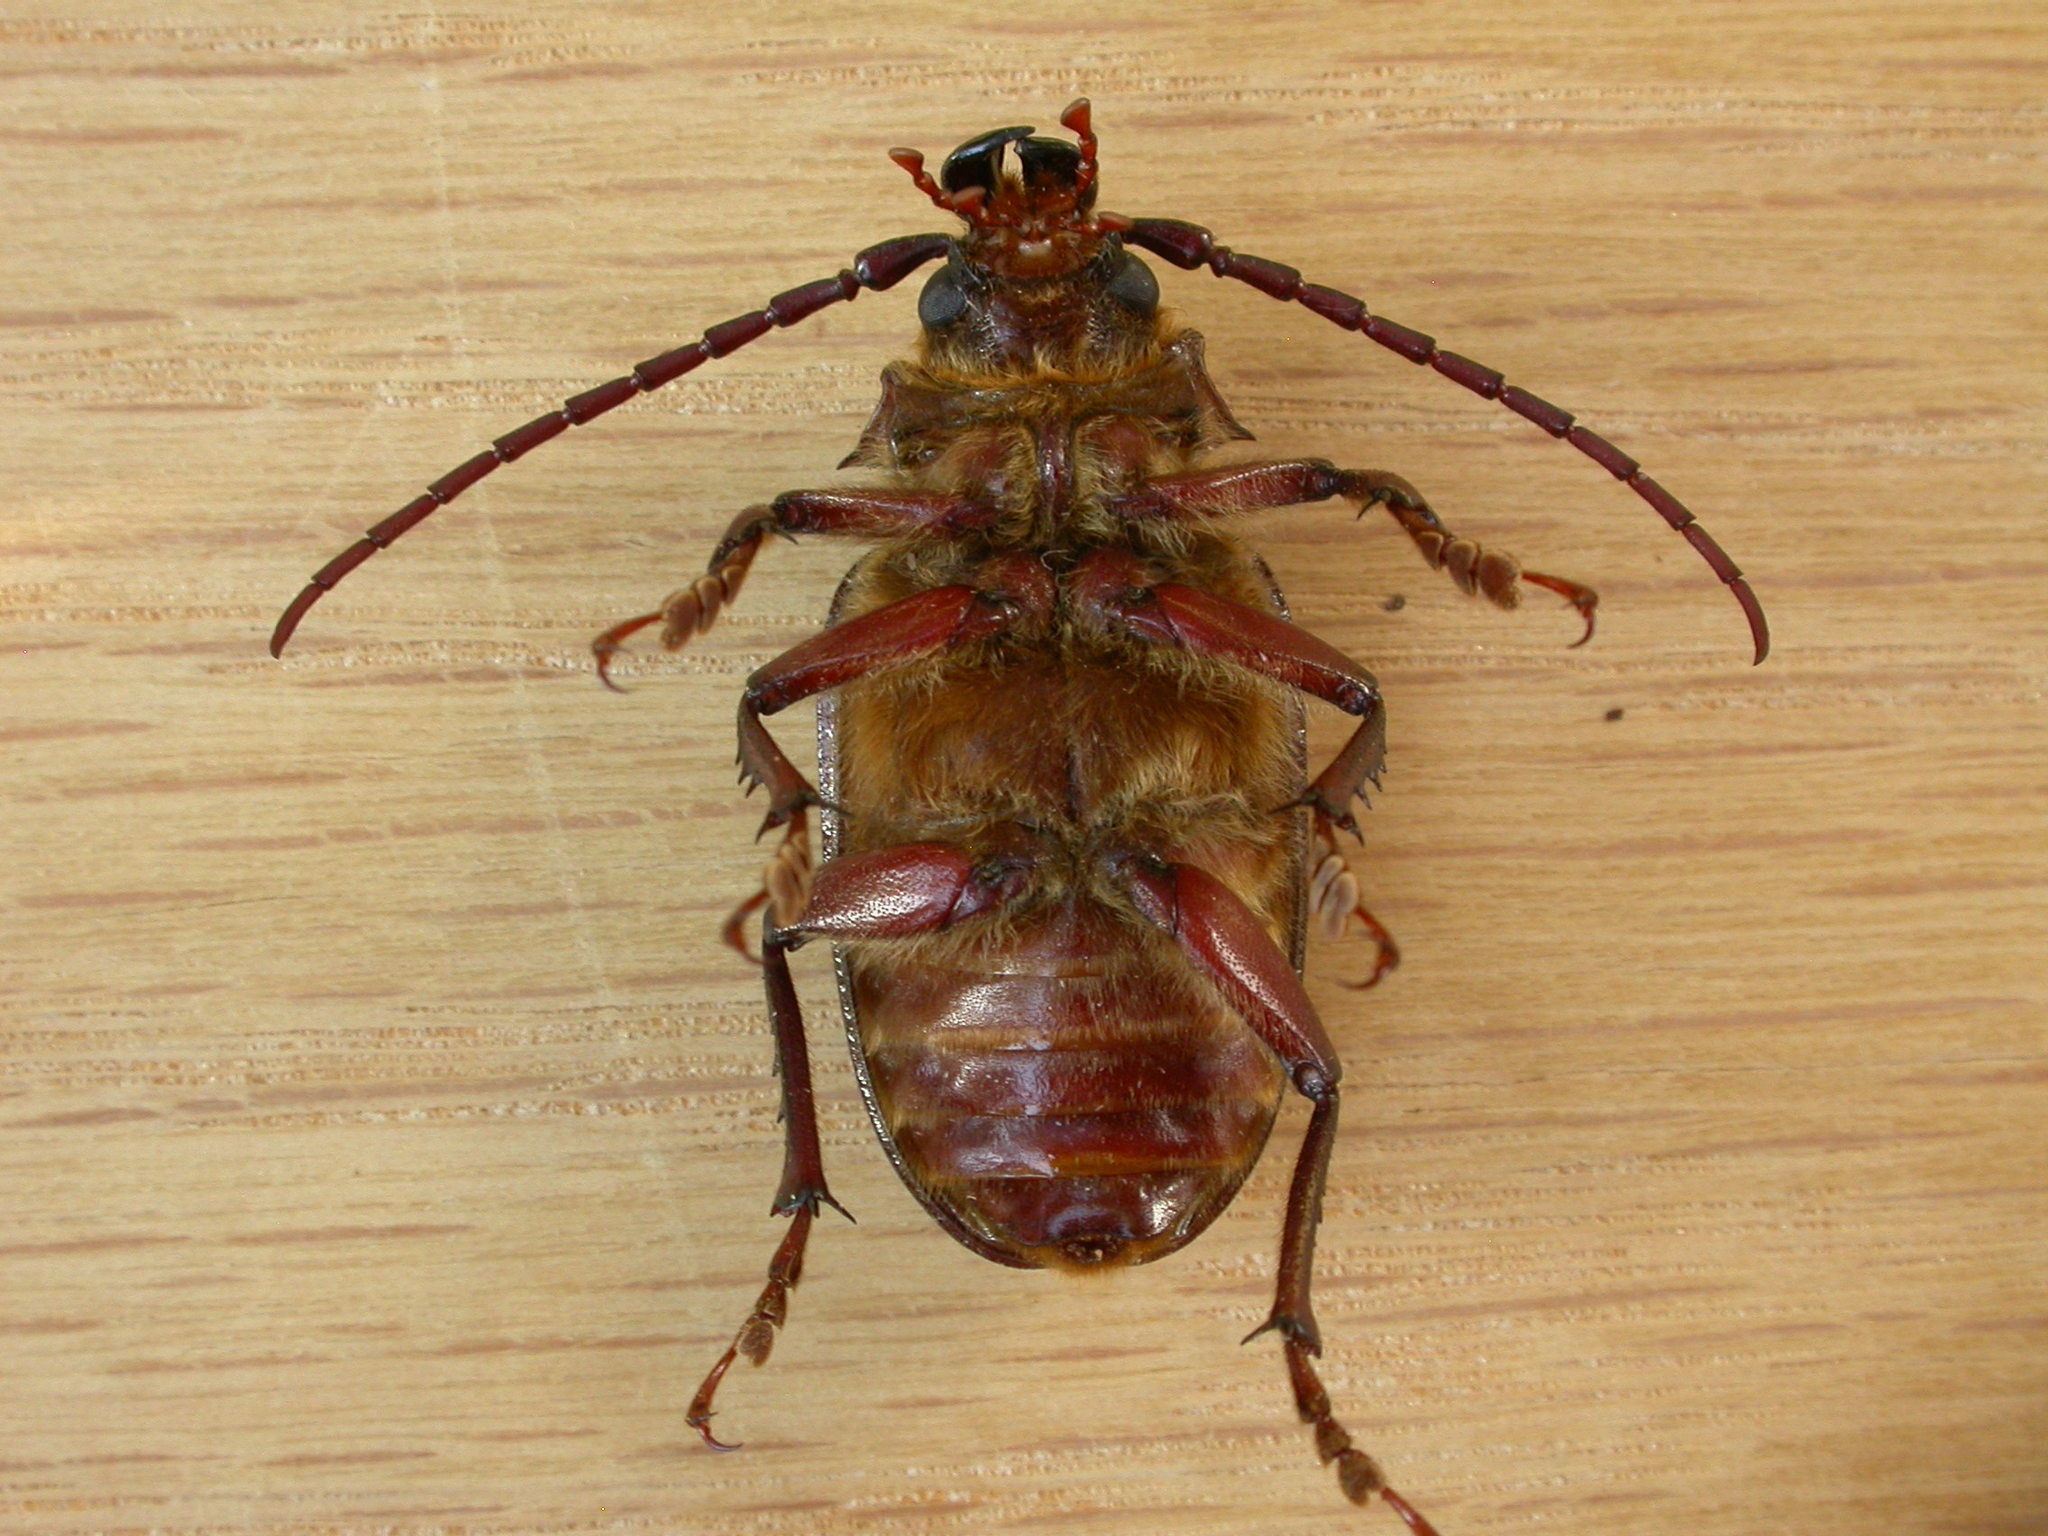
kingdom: Animalia
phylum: Arthropoda
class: Insecta
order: Coleoptera
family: Cerambycidae
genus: Sceleocantha
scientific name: Sceleocantha glabricollis
